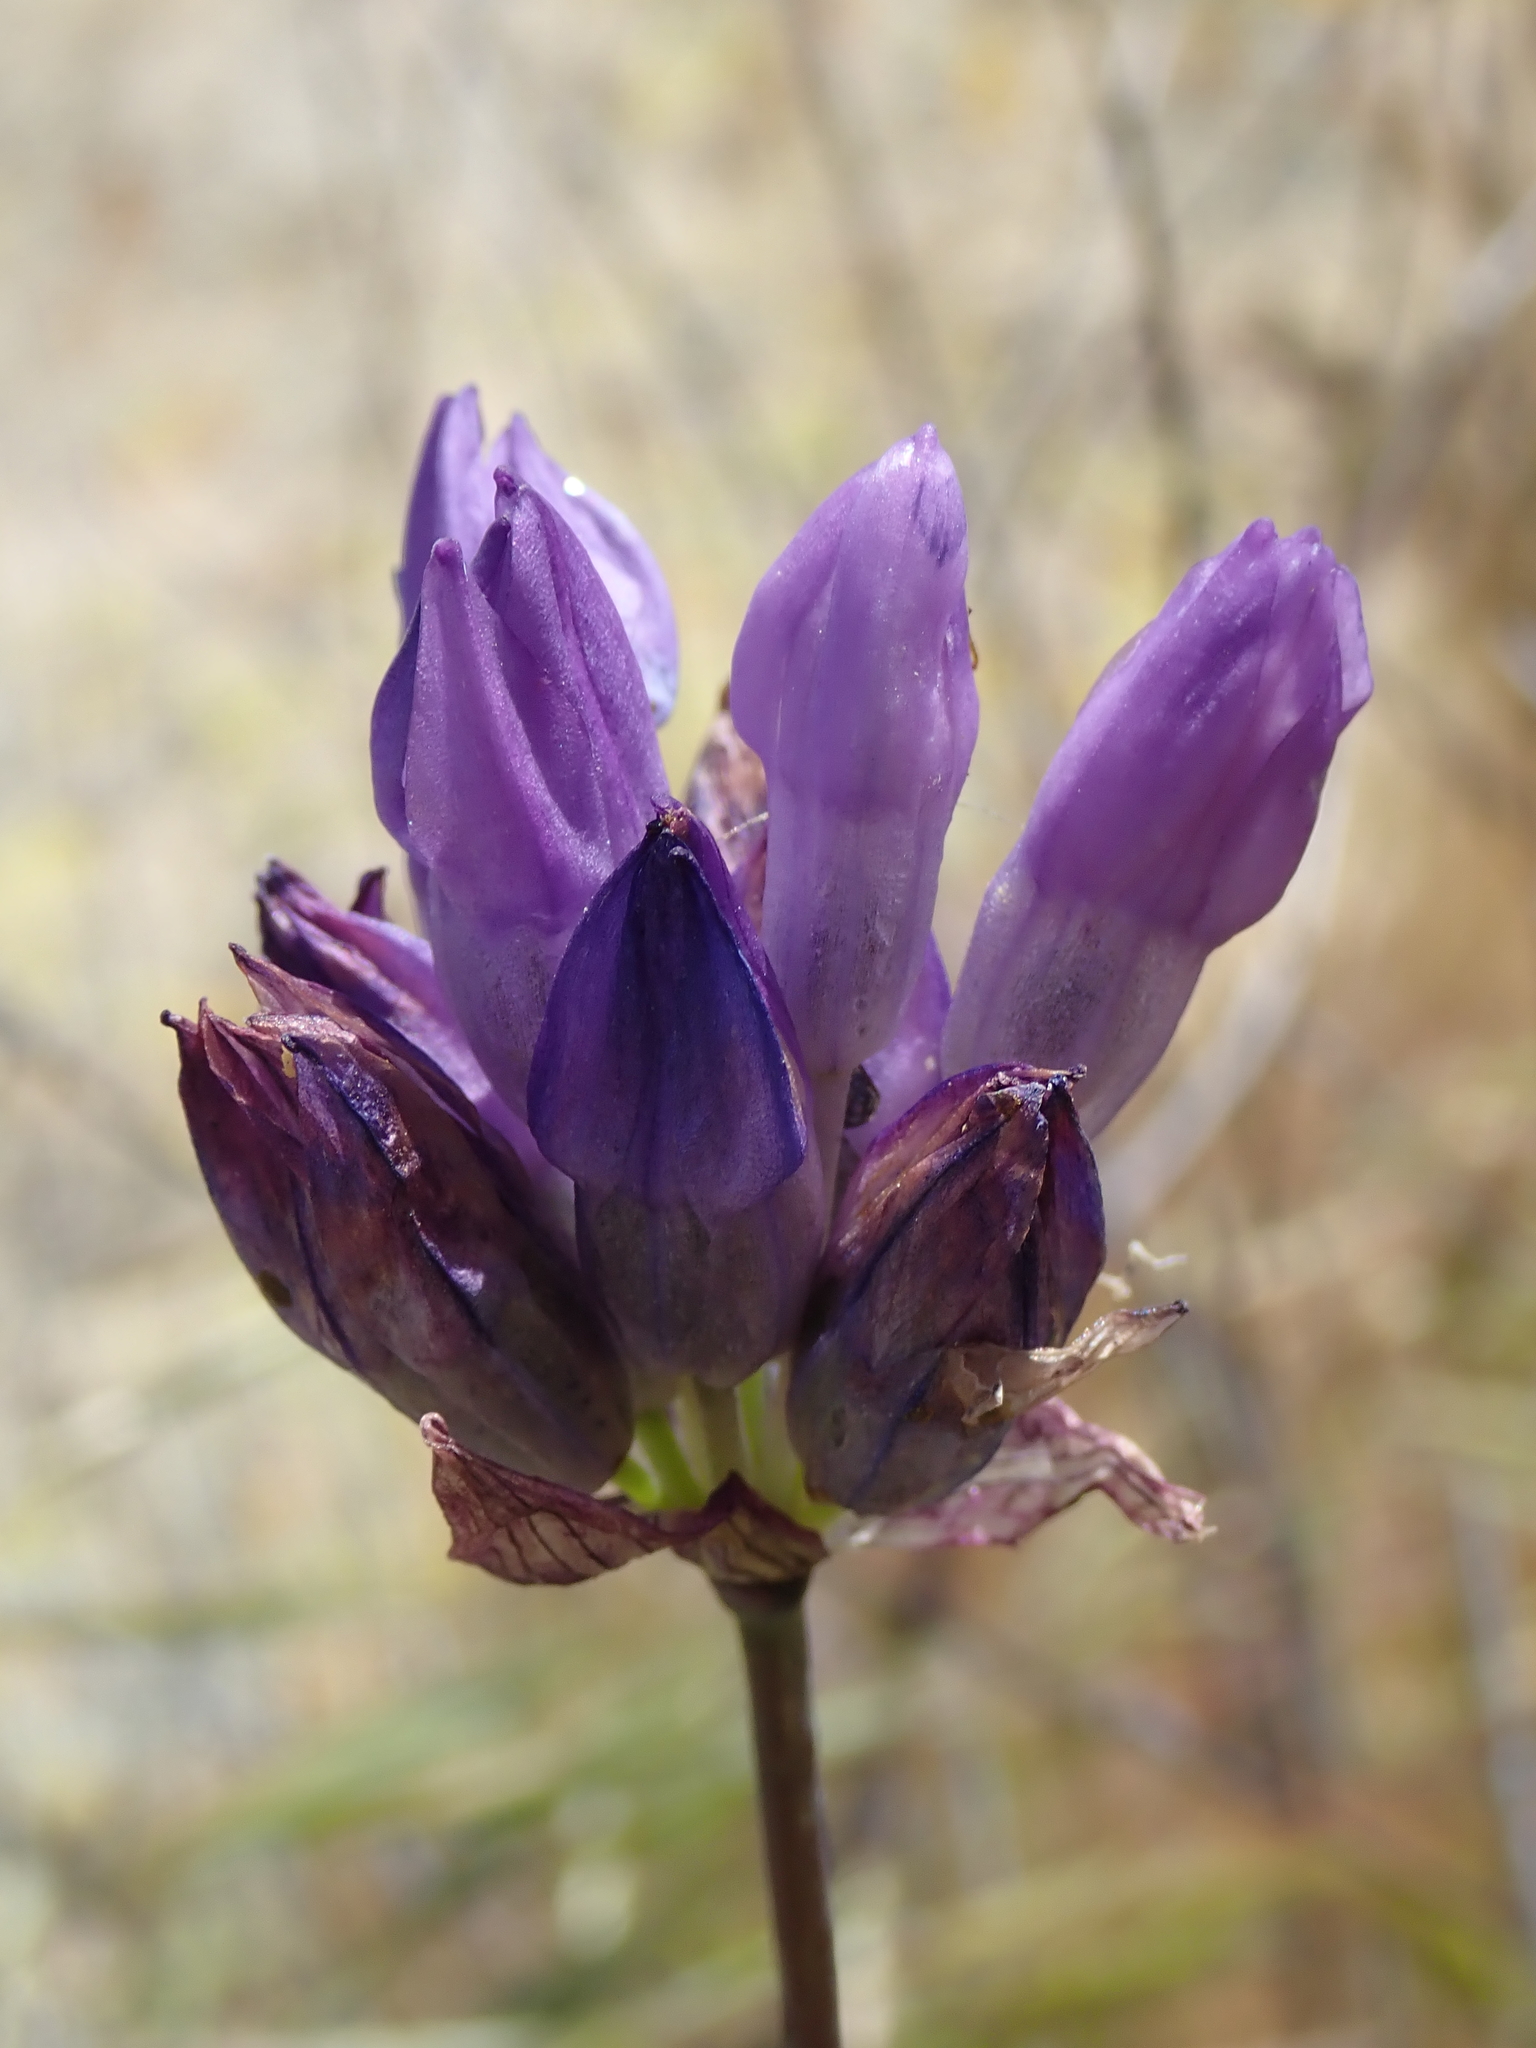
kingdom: Plantae
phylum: Tracheophyta
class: Liliopsida
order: Asparagales
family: Asparagaceae
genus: Dipterostemon
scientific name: Dipterostemon capitatus
